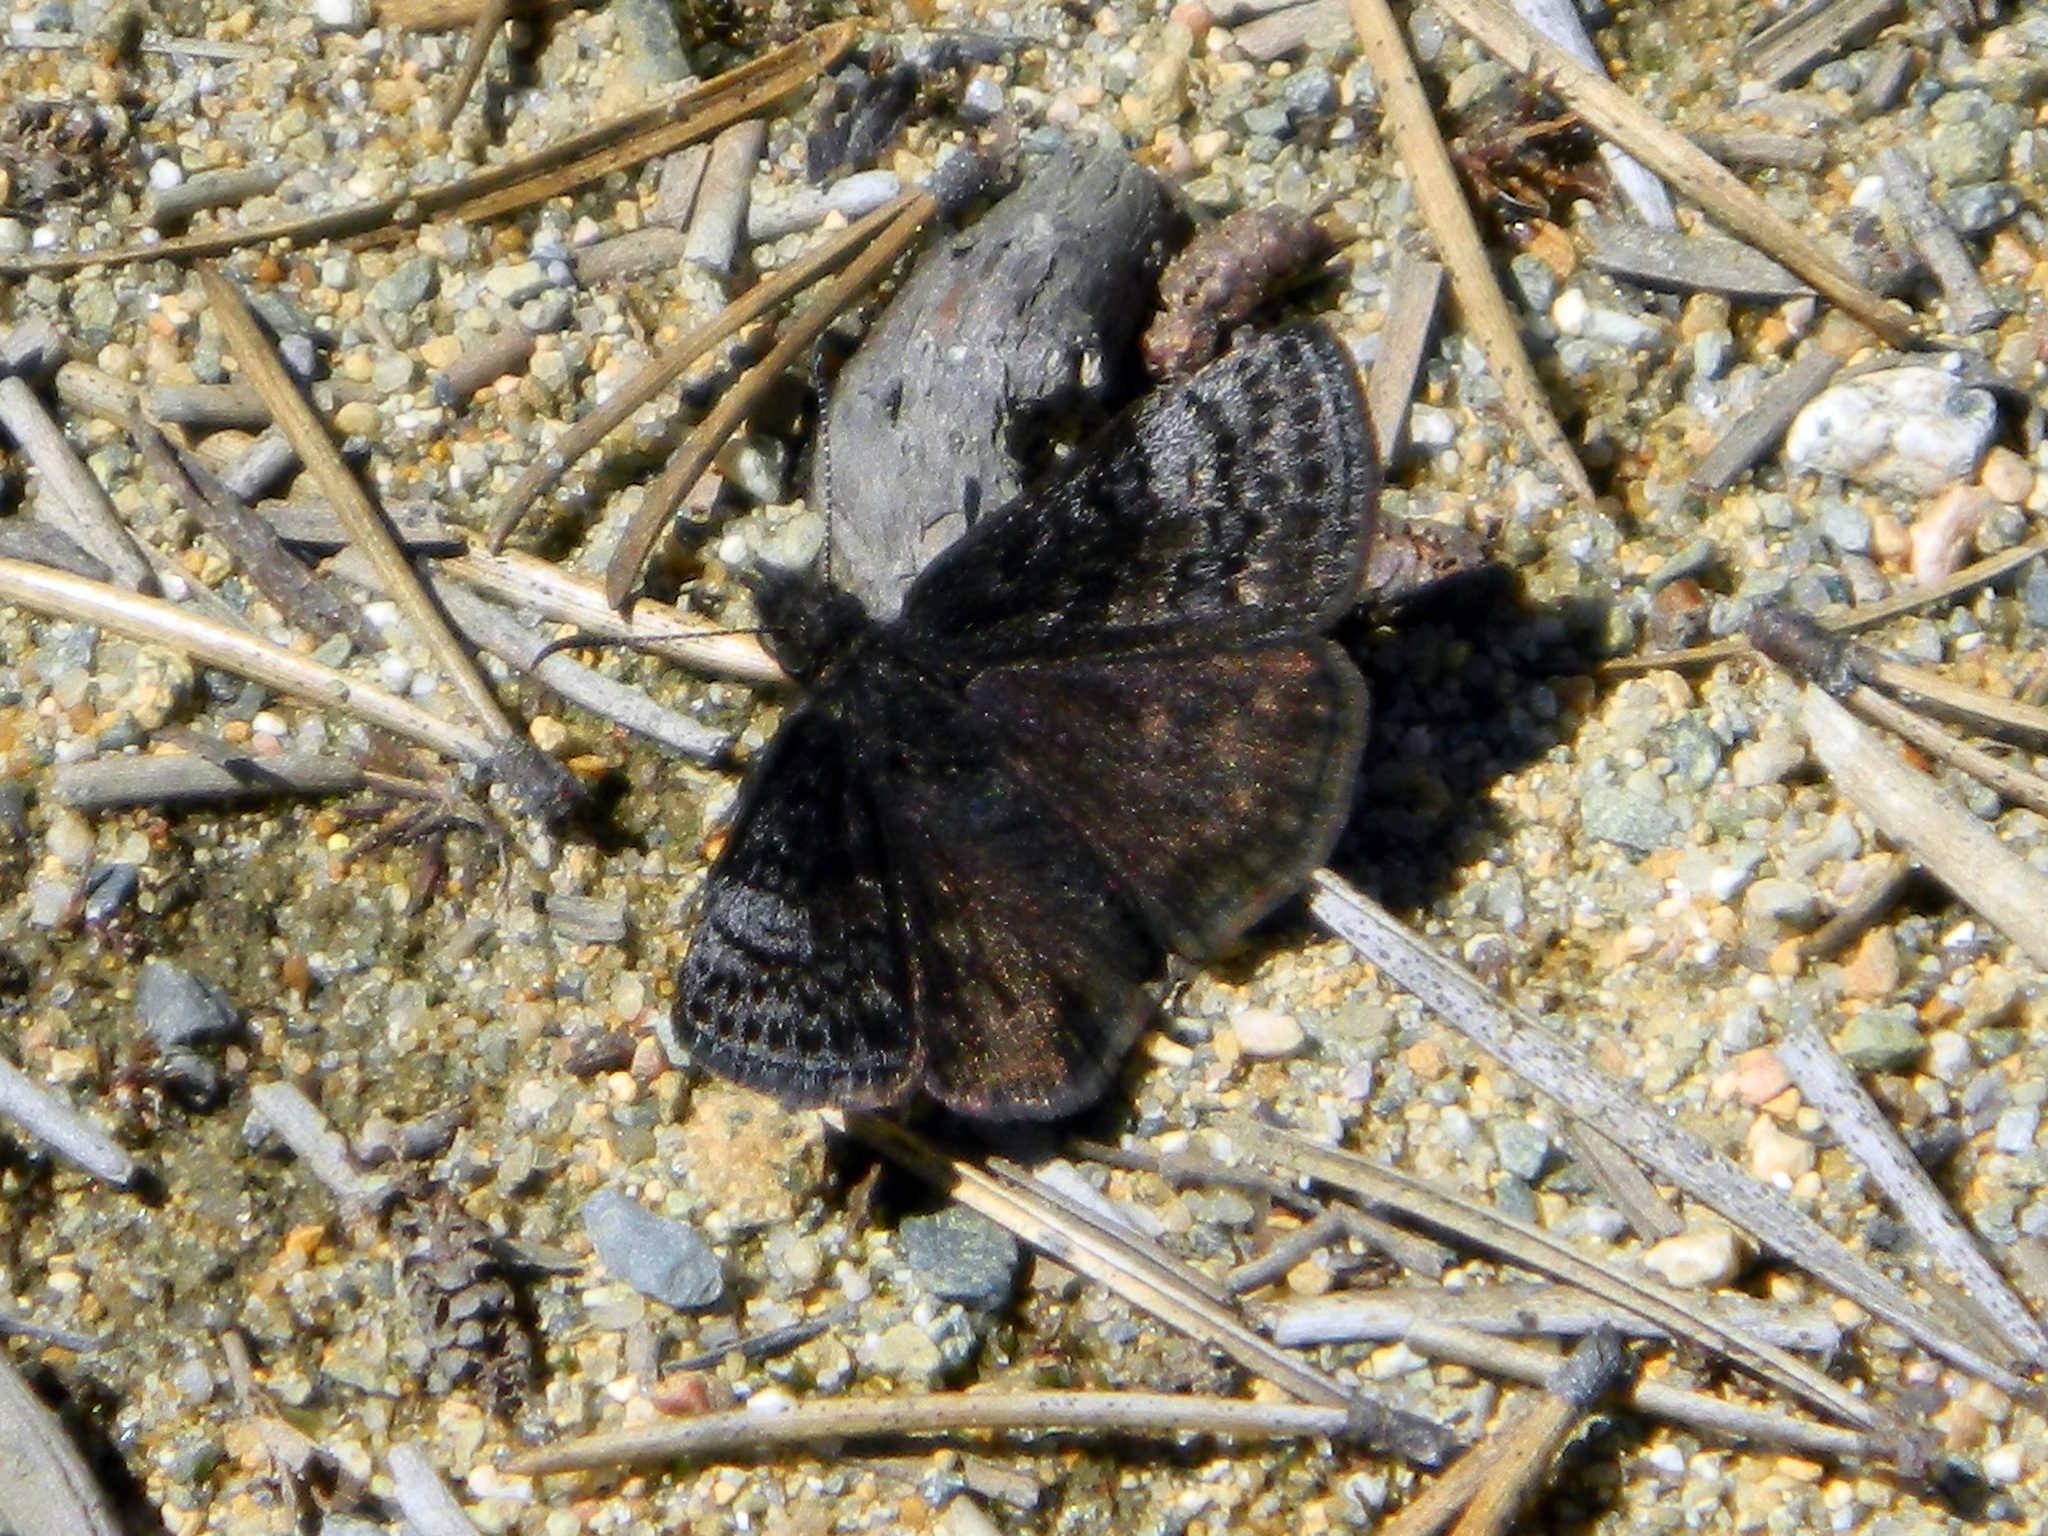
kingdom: Animalia
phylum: Arthropoda
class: Insecta
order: Lepidoptera
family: Hesperiidae
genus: Erynnis
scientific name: Erynnis icelus
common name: Dreamy duskywing
